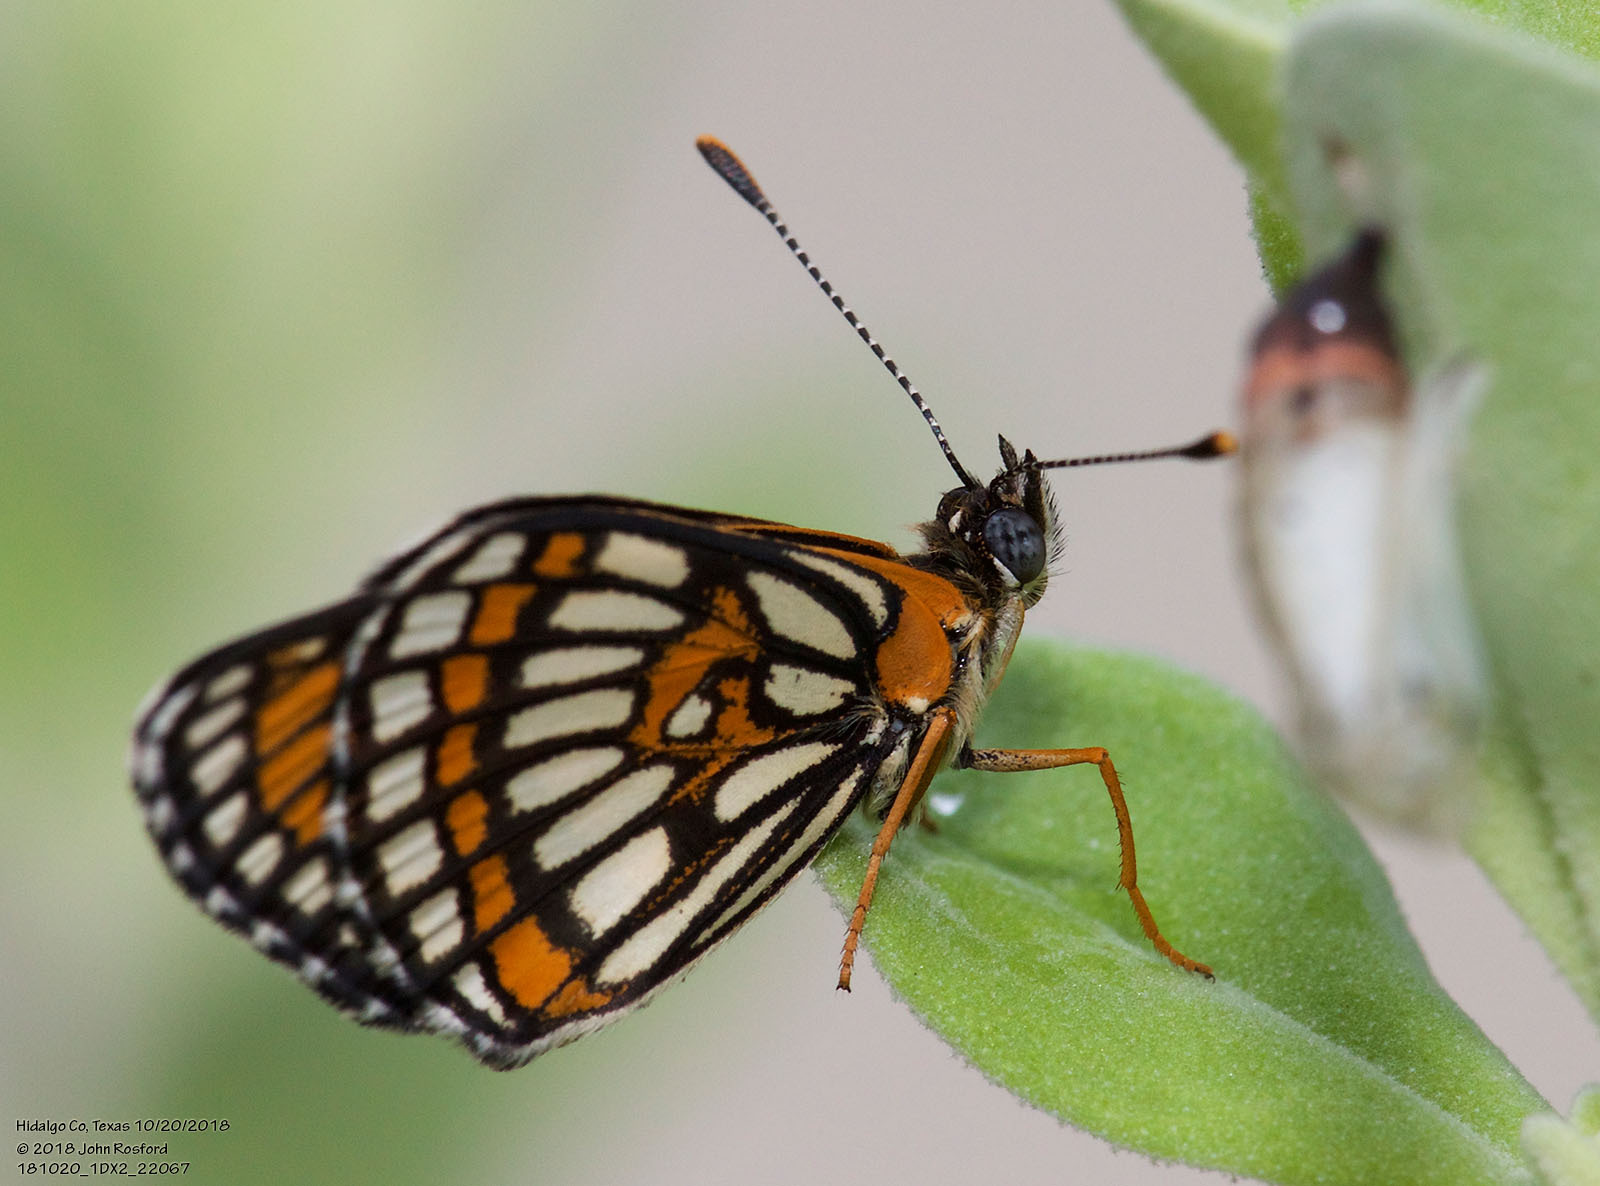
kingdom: Animalia
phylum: Arthropoda
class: Insecta
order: Lepidoptera
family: Nymphalidae
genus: Thessalia
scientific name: Thessalia theona
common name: Nymphalid moth
